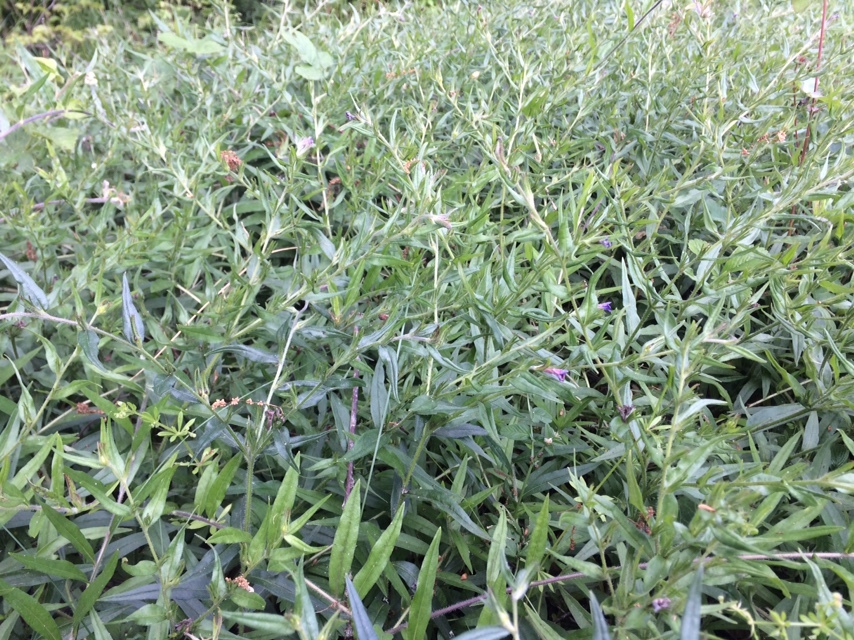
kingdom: Plantae
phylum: Tracheophyta
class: Magnoliopsida
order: Boraginales
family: Boraginaceae
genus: Aegonychon
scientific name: Aegonychon purpurocaeruleum
